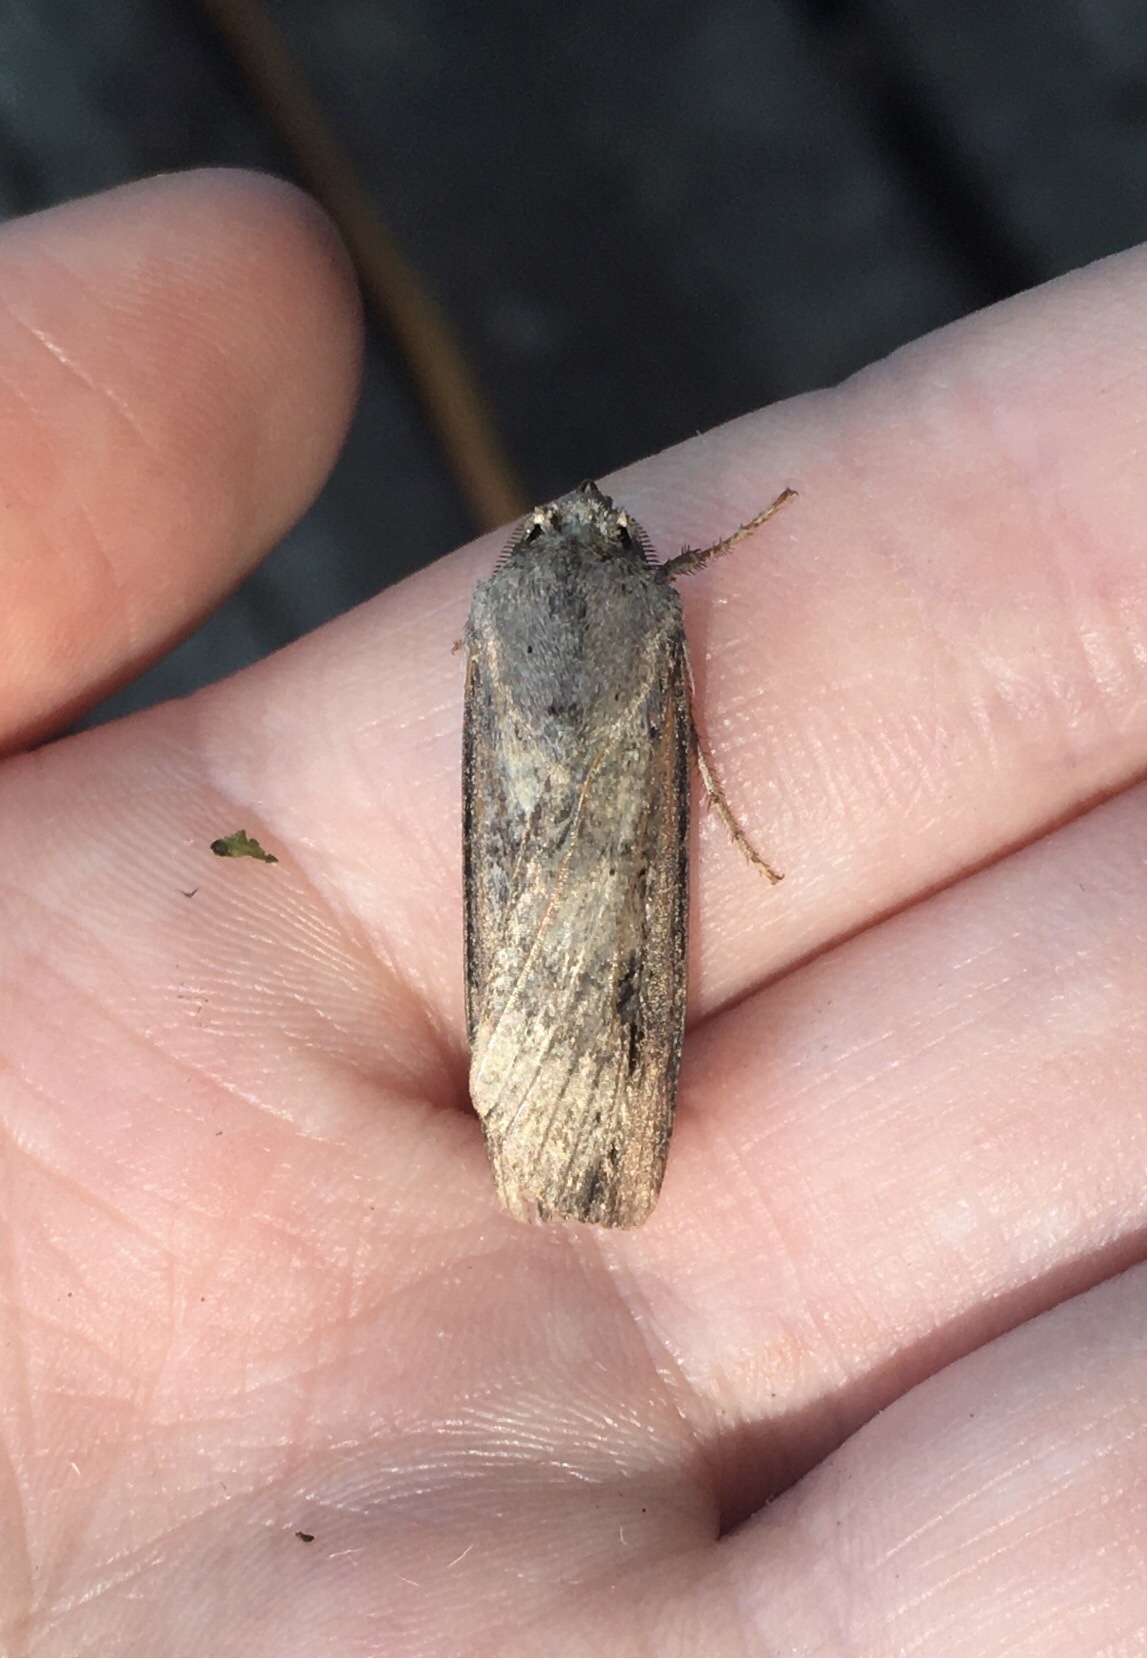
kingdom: Animalia
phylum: Arthropoda
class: Insecta
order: Lepidoptera
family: Noctuidae
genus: Agrotis
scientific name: Agrotis ipsilon
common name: Dark sword-grass
